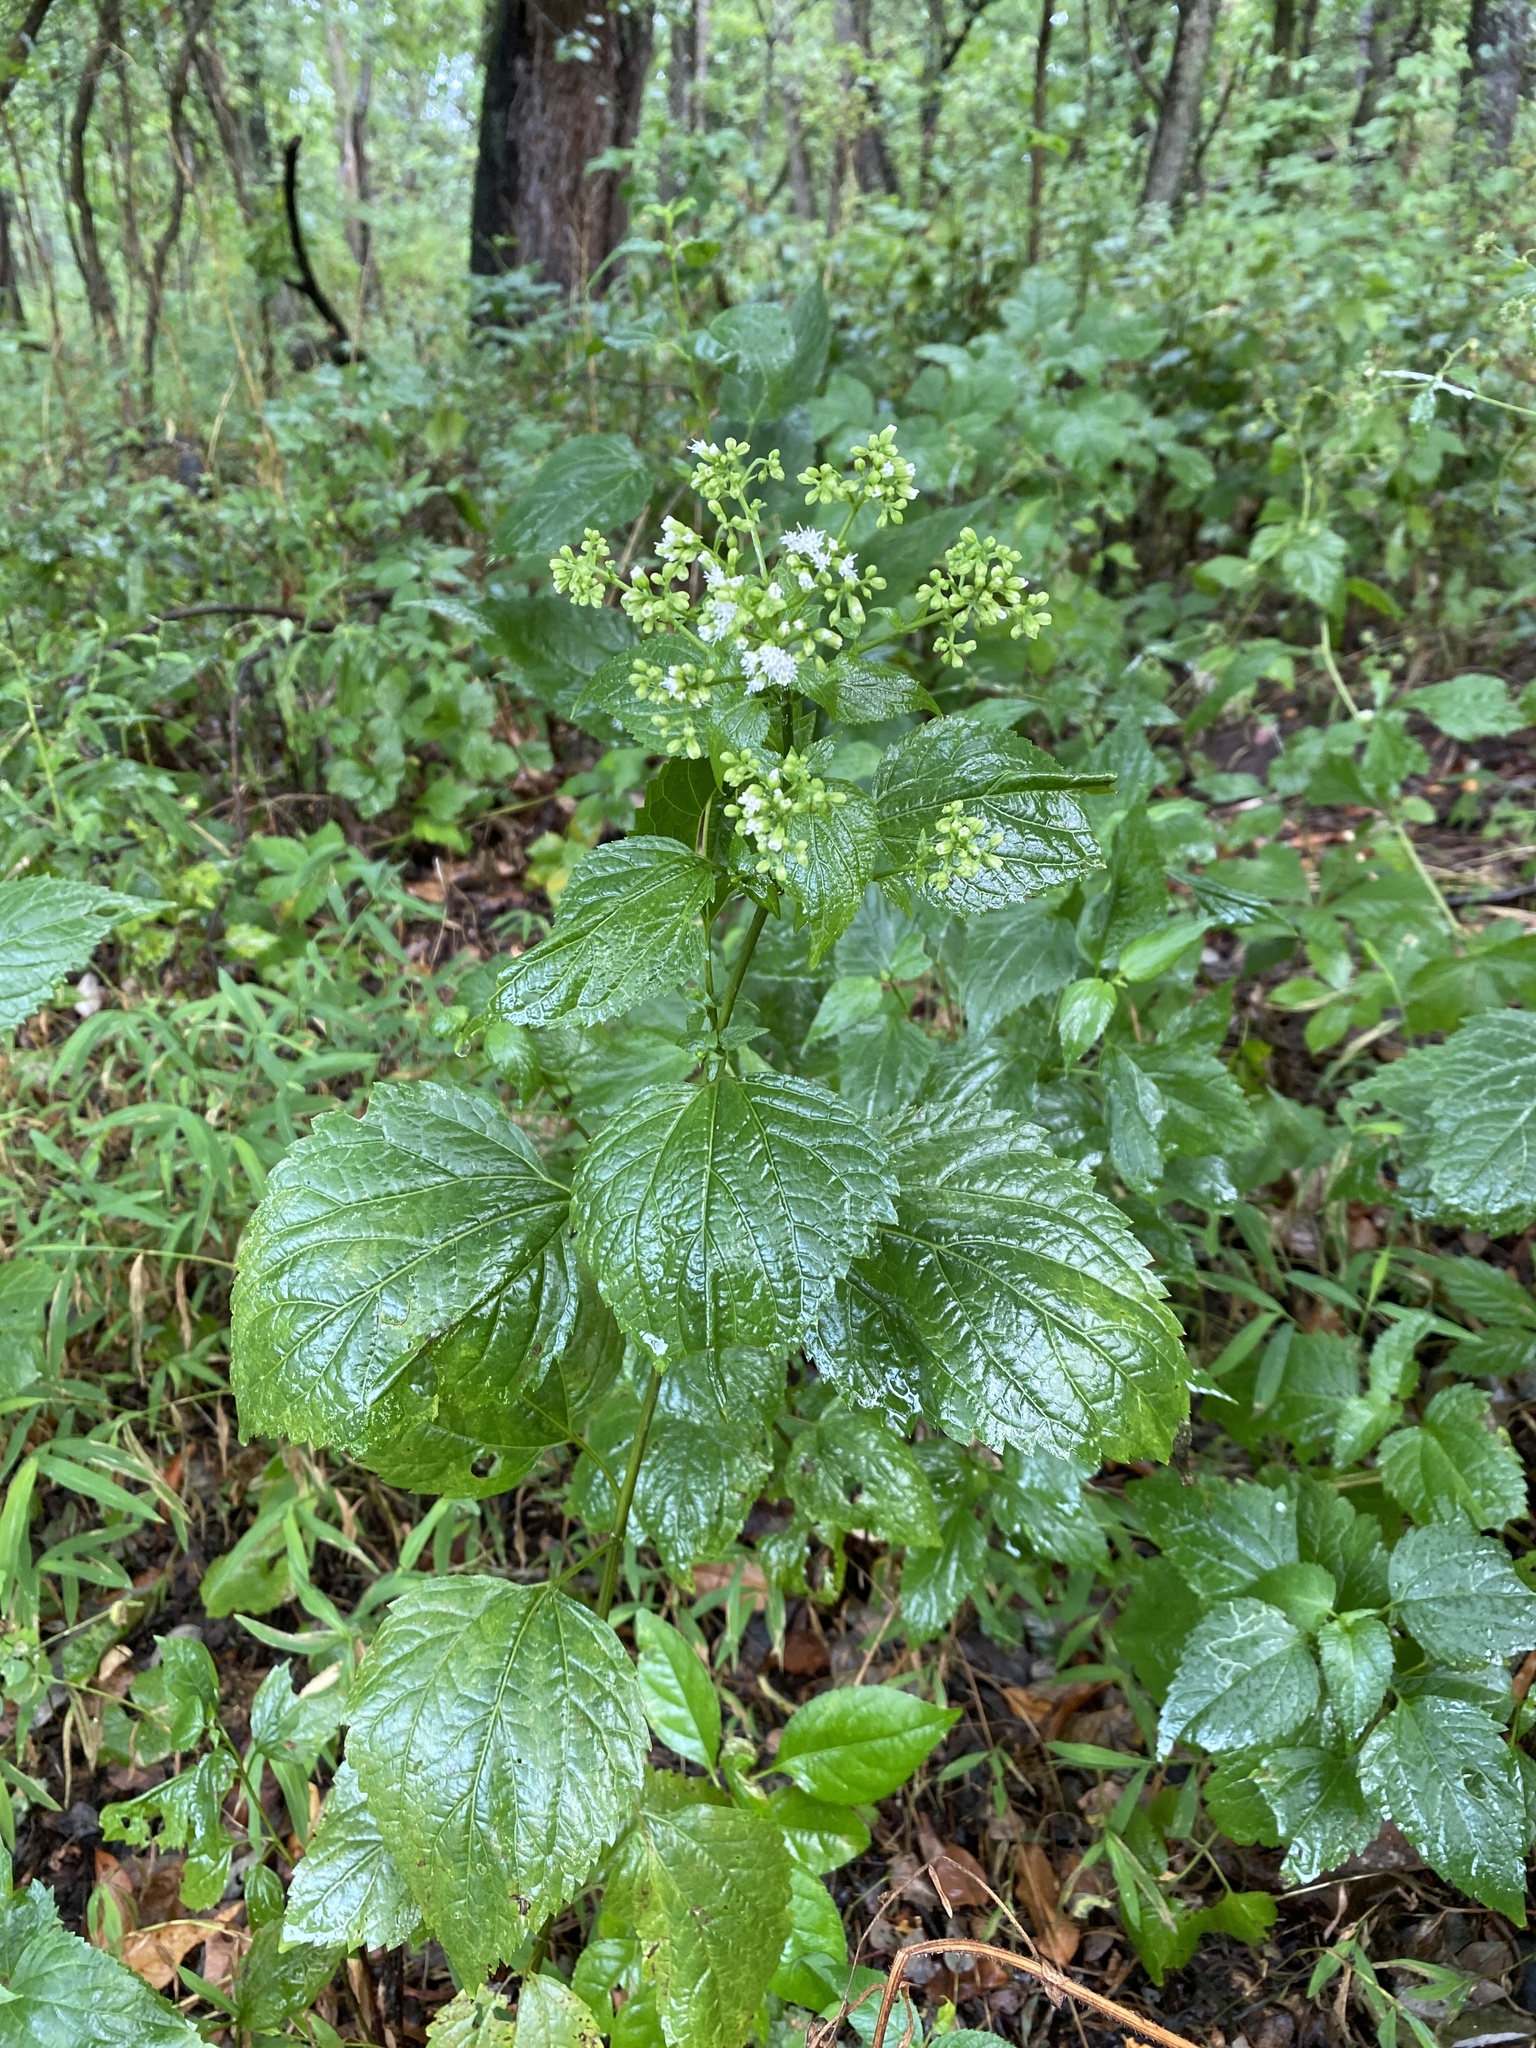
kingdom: Plantae
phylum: Tracheophyta
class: Magnoliopsida
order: Asterales
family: Asteraceae
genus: Ageratina
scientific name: Ageratina altissima
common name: White snakeroot
